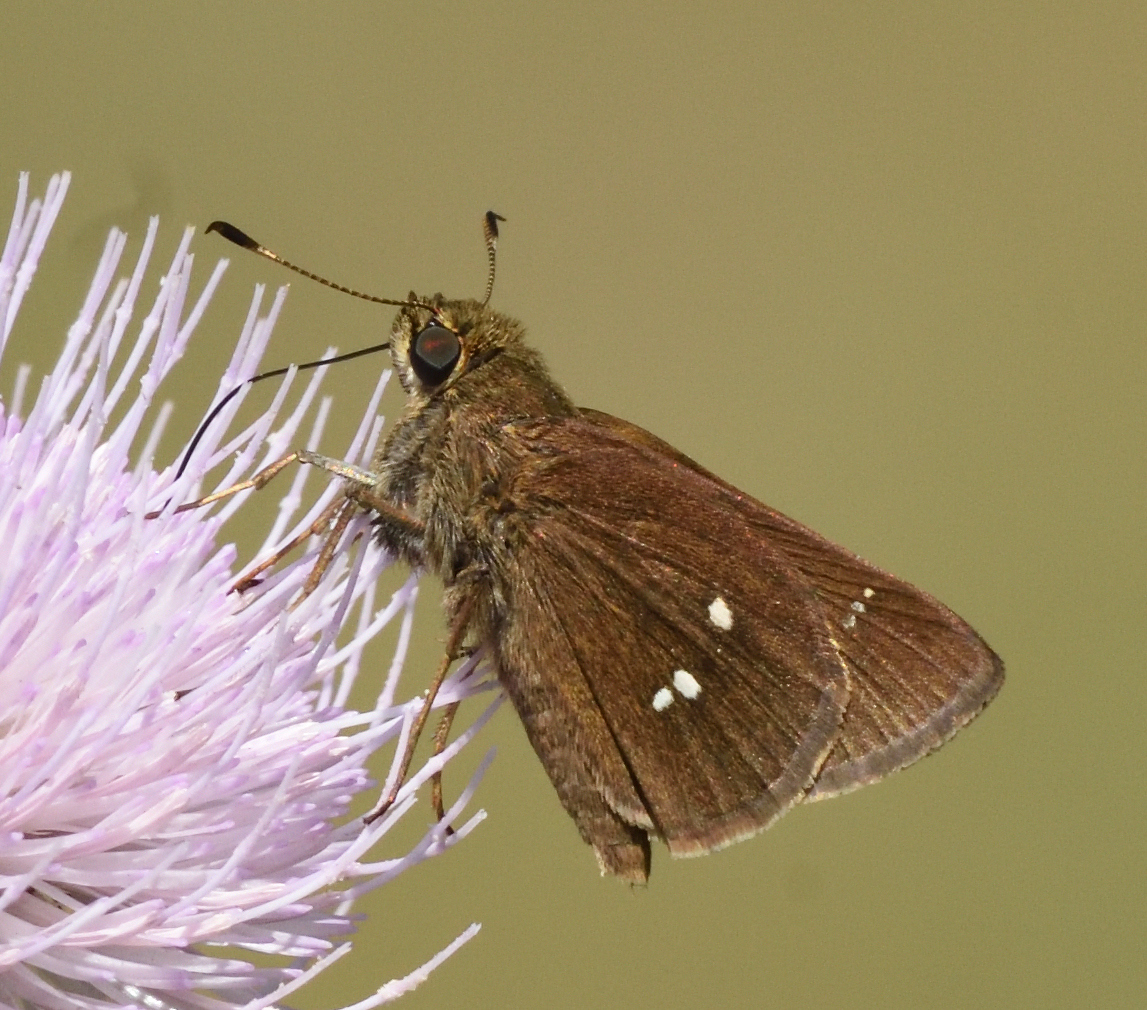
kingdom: Animalia
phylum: Arthropoda
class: Insecta
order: Lepidoptera
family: Hesperiidae
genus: Oligoria
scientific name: Oligoria maculata
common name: Twin-spot skipper
